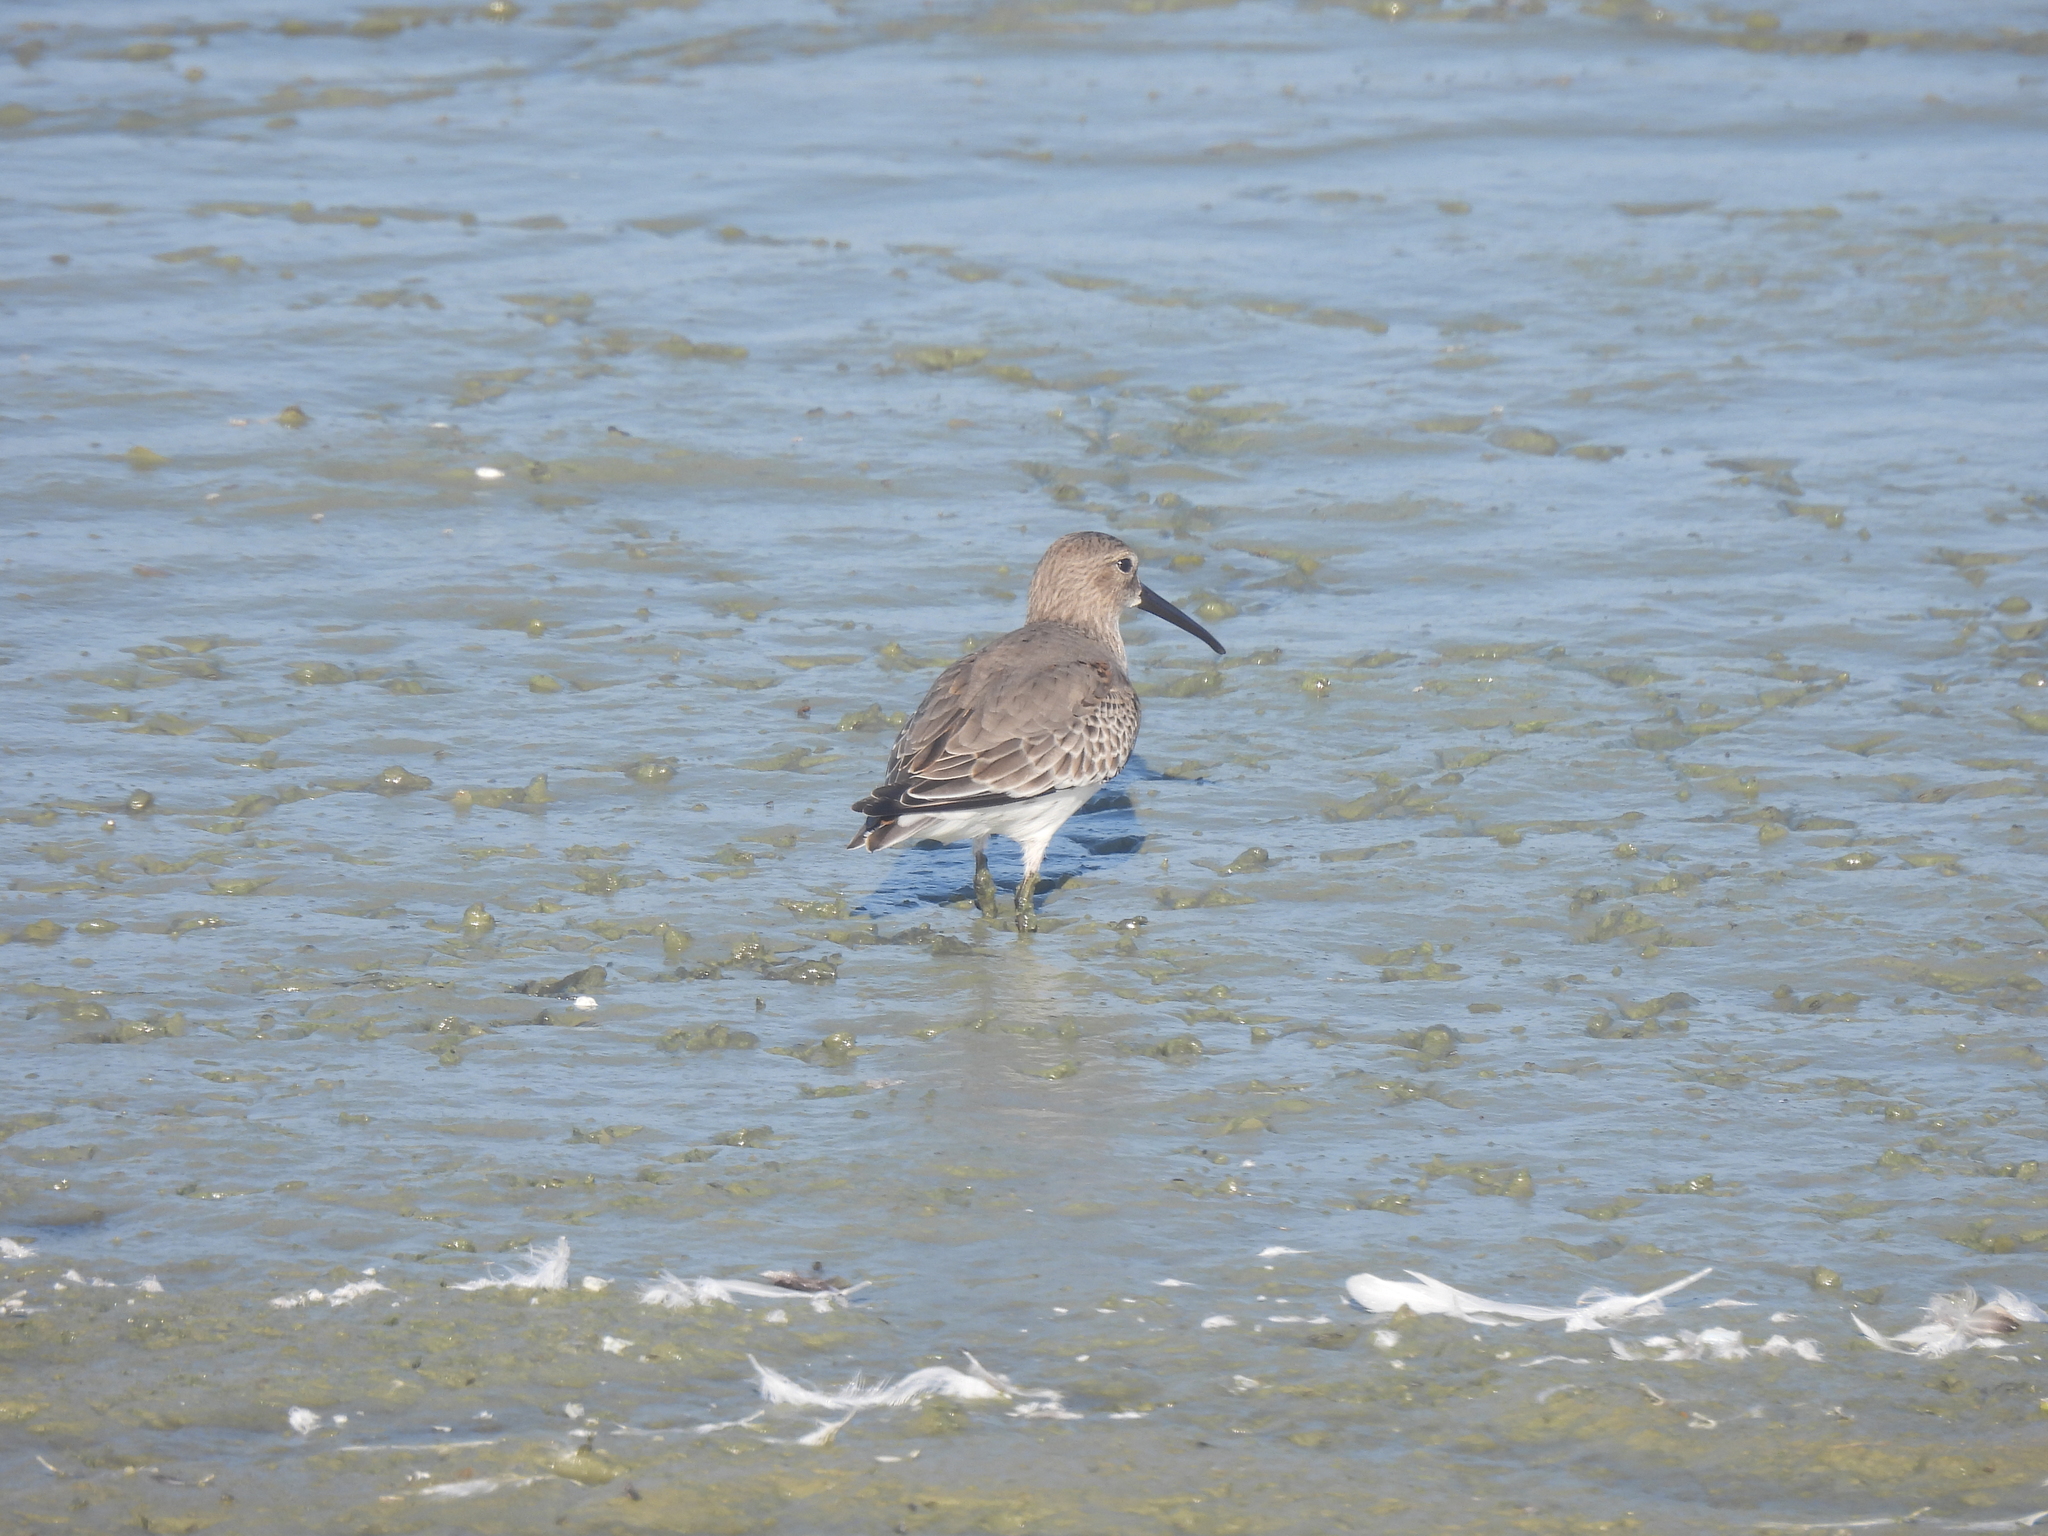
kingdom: Animalia
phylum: Chordata
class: Aves
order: Charadriiformes
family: Scolopacidae
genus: Calidris
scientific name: Calidris alpina
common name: Dunlin
